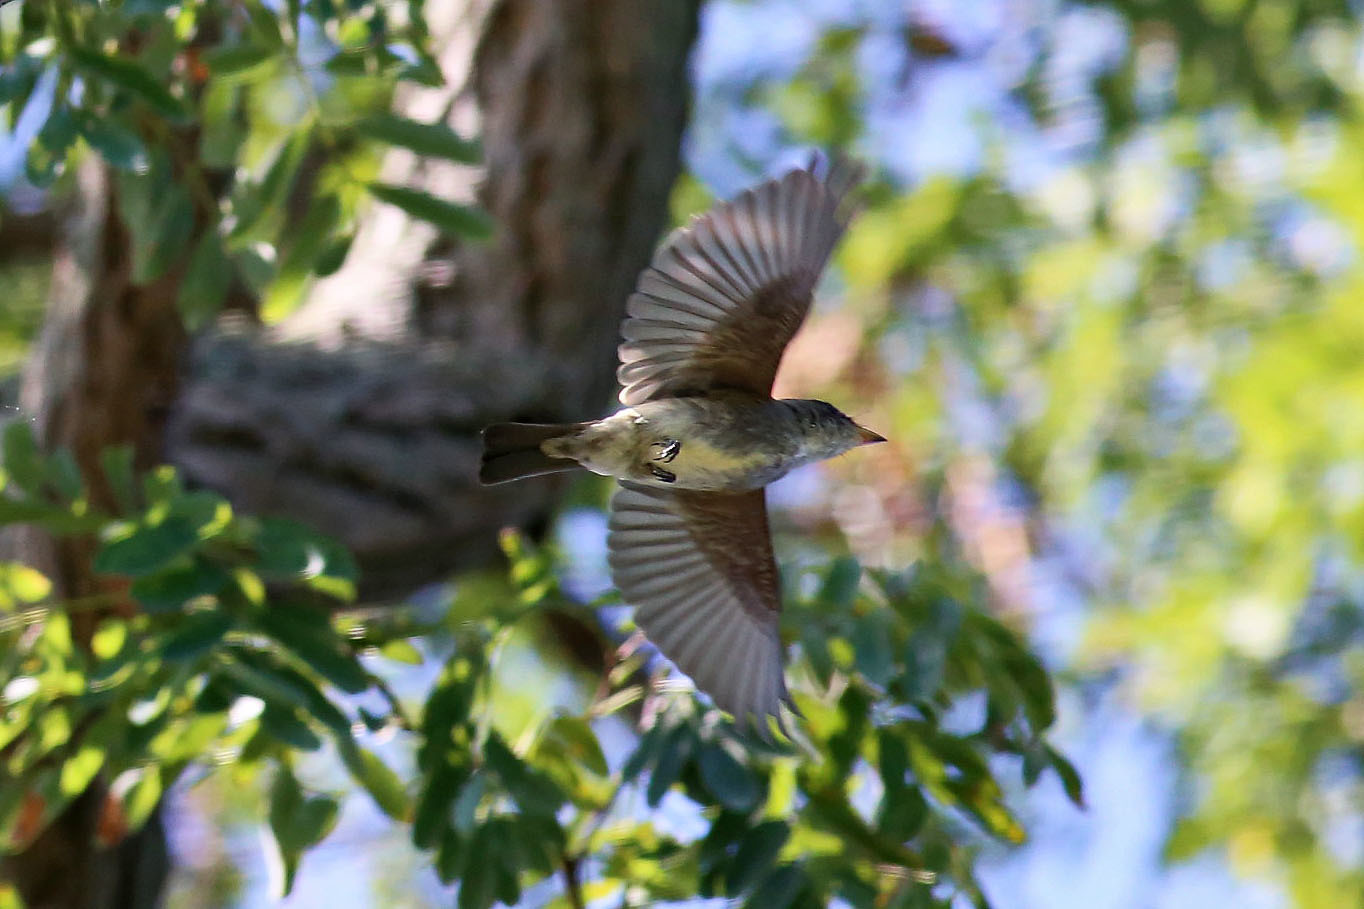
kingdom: Animalia
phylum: Chordata
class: Aves
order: Passeriformes
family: Tyrannidae
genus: Contopus
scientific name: Contopus virens
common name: Eastern wood-pewee
